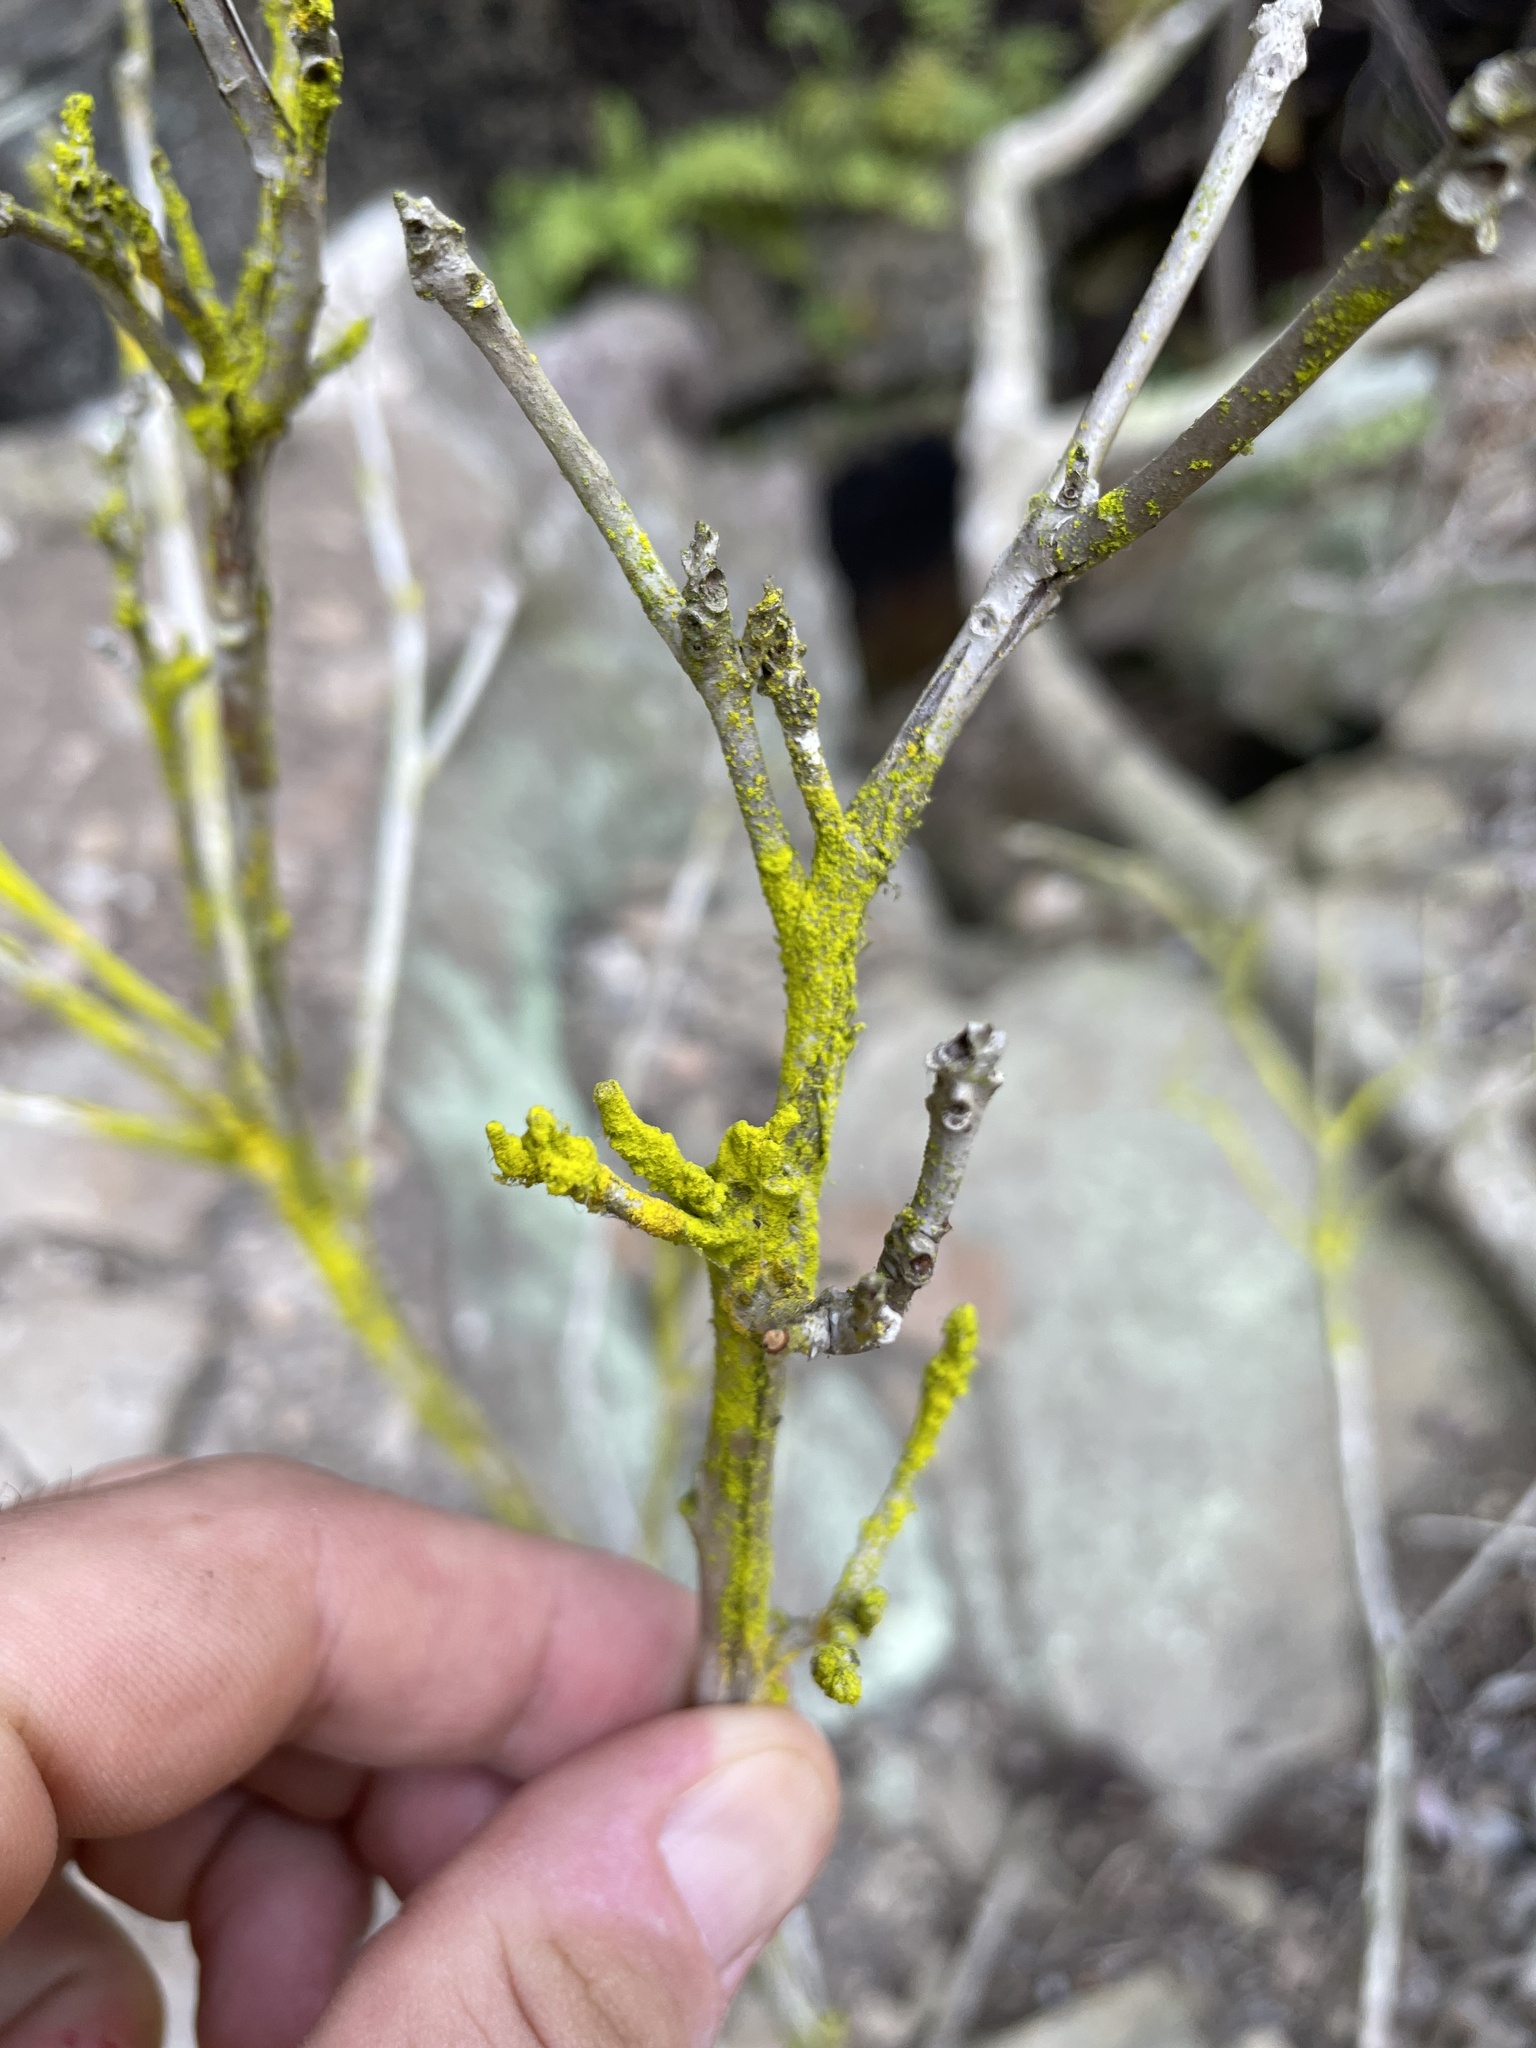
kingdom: Fungi
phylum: Ascomycota
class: Arthoniomycetes
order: Arthoniales
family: Chrysotrichaceae
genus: Chrysothrix
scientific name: Chrysothrix xanthina
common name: Common gold-dust
